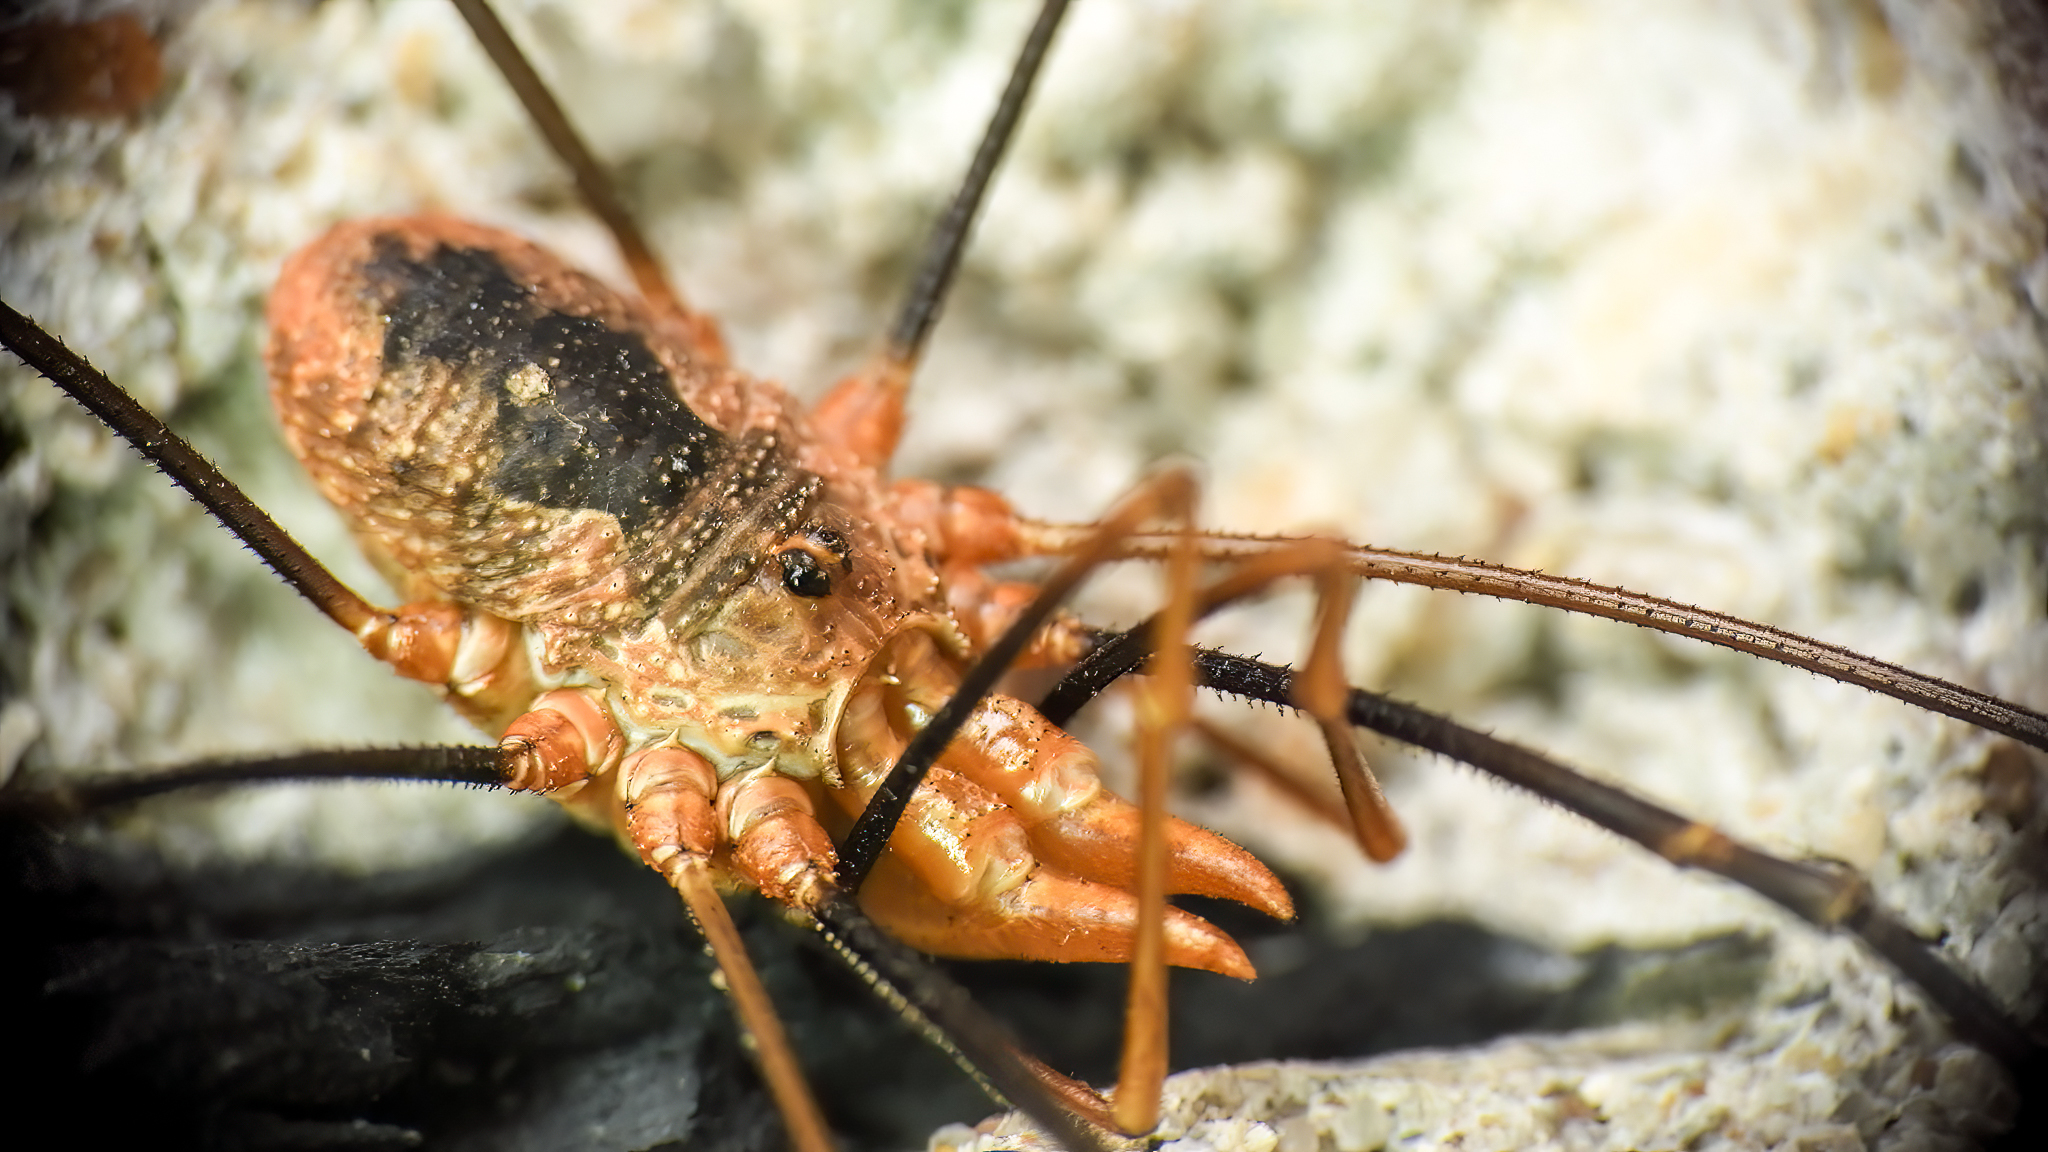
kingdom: Animalia
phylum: Arthropoda
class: Arachnida
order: Opiliones
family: Phalangiidae
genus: Phalangium
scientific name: Phalangium opilio
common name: Daddy longleg
